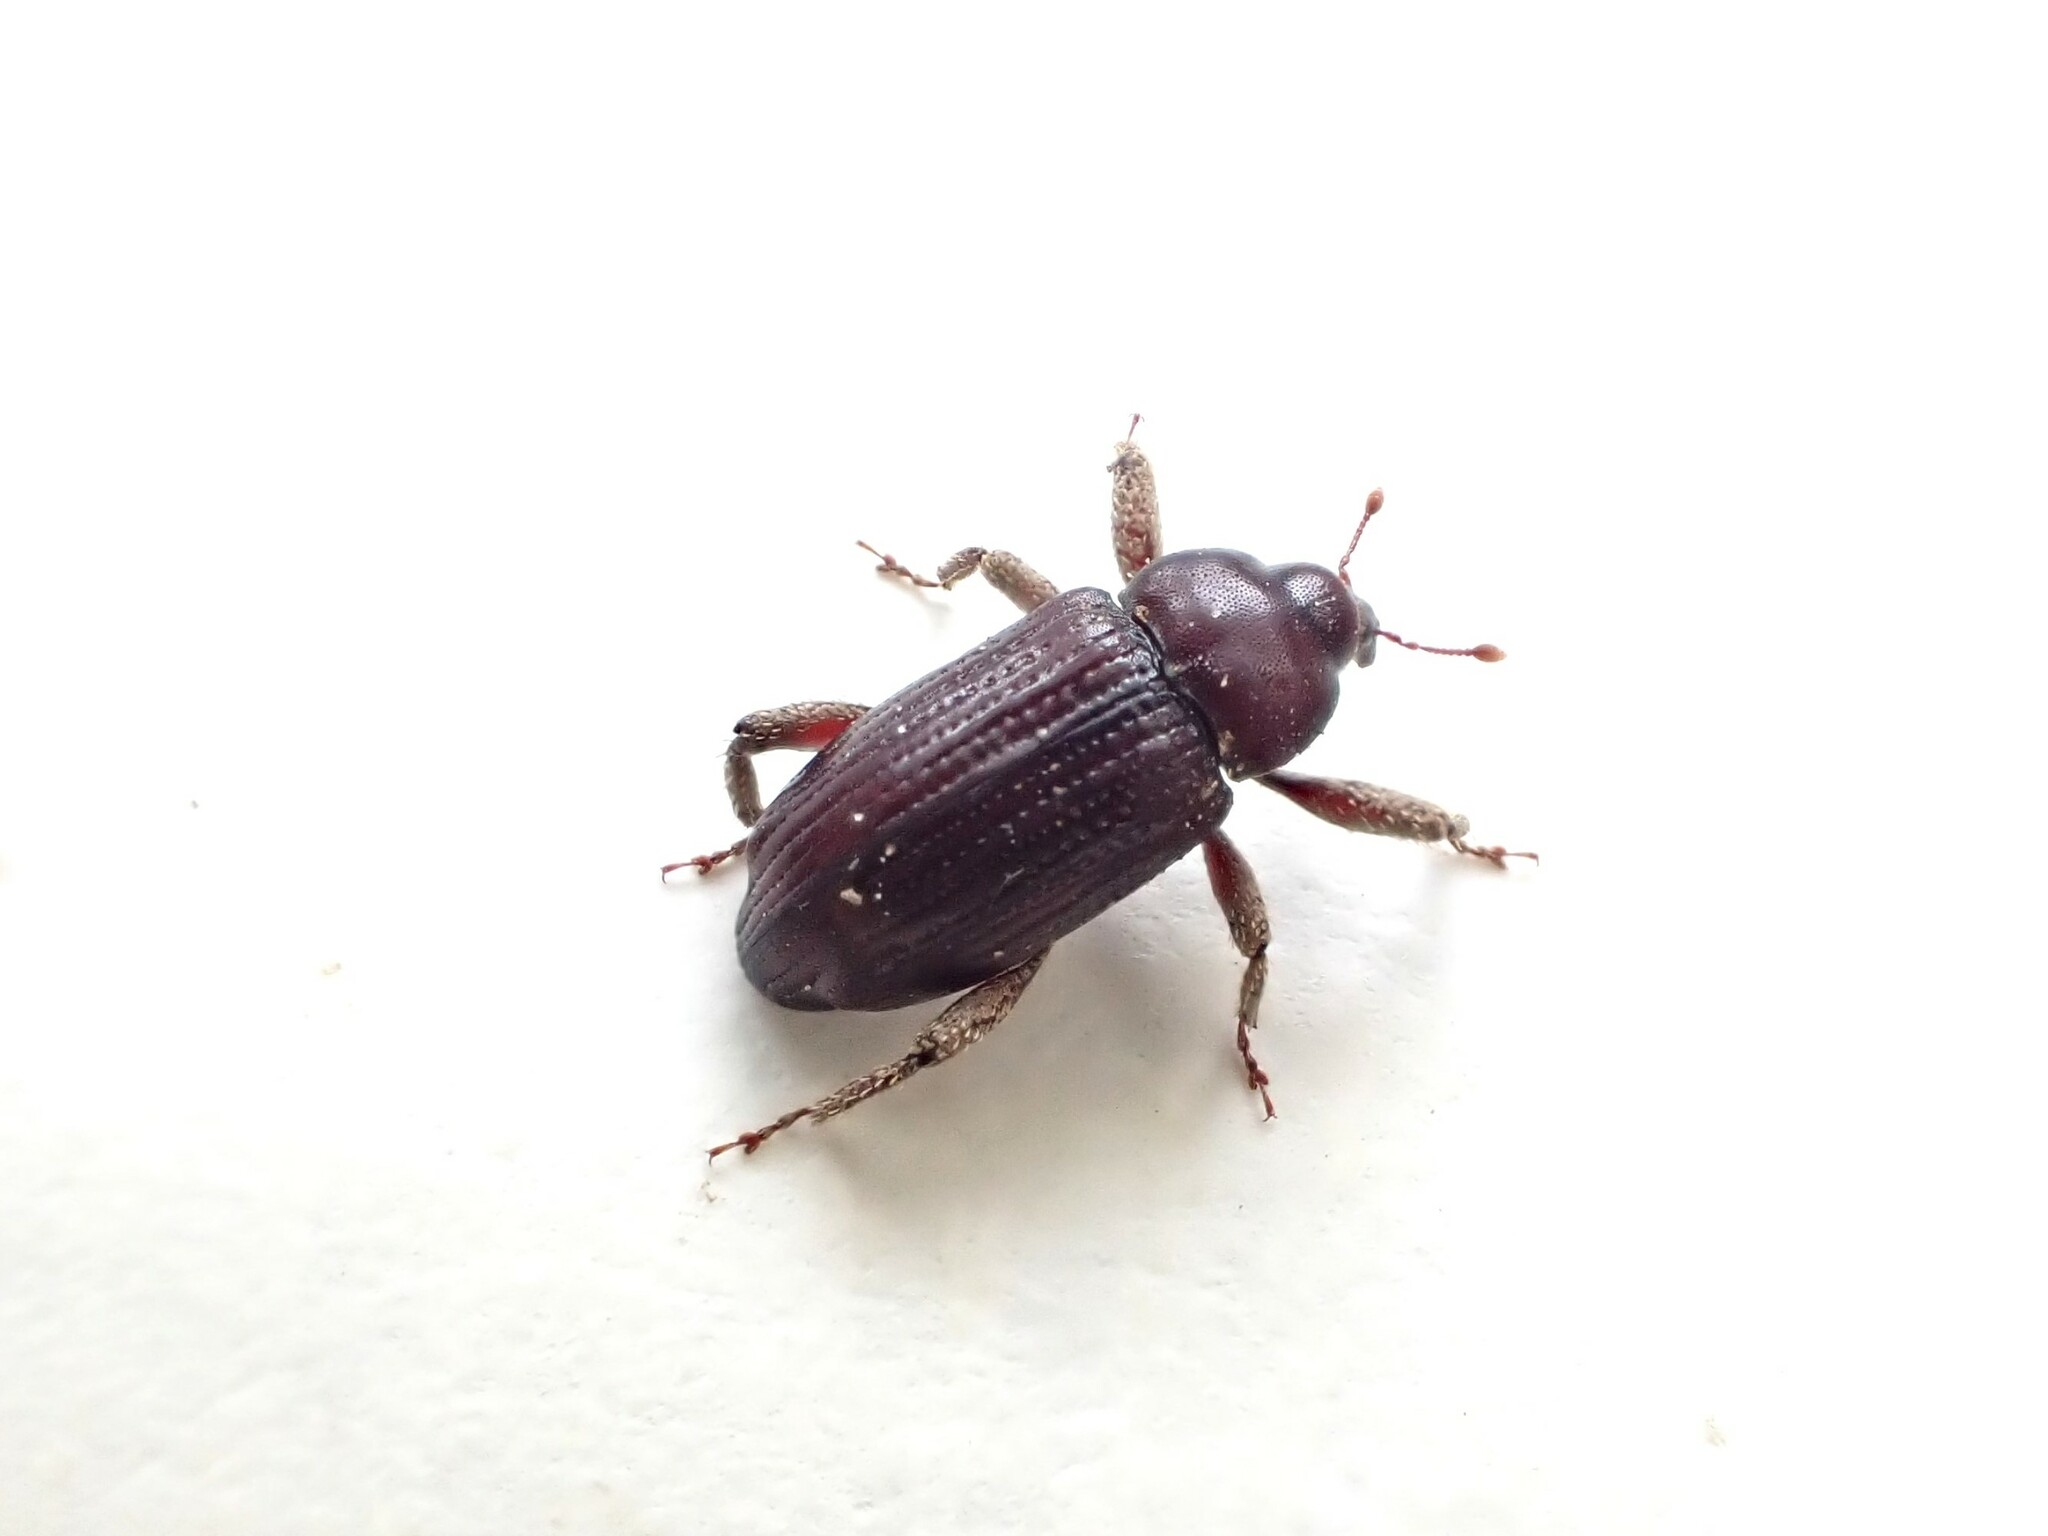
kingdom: Animalia
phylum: Arthropoda
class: Insecta
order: Coleoptera
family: Curculionidae
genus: Mitrastethus
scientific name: Mitrastethus baridioides
